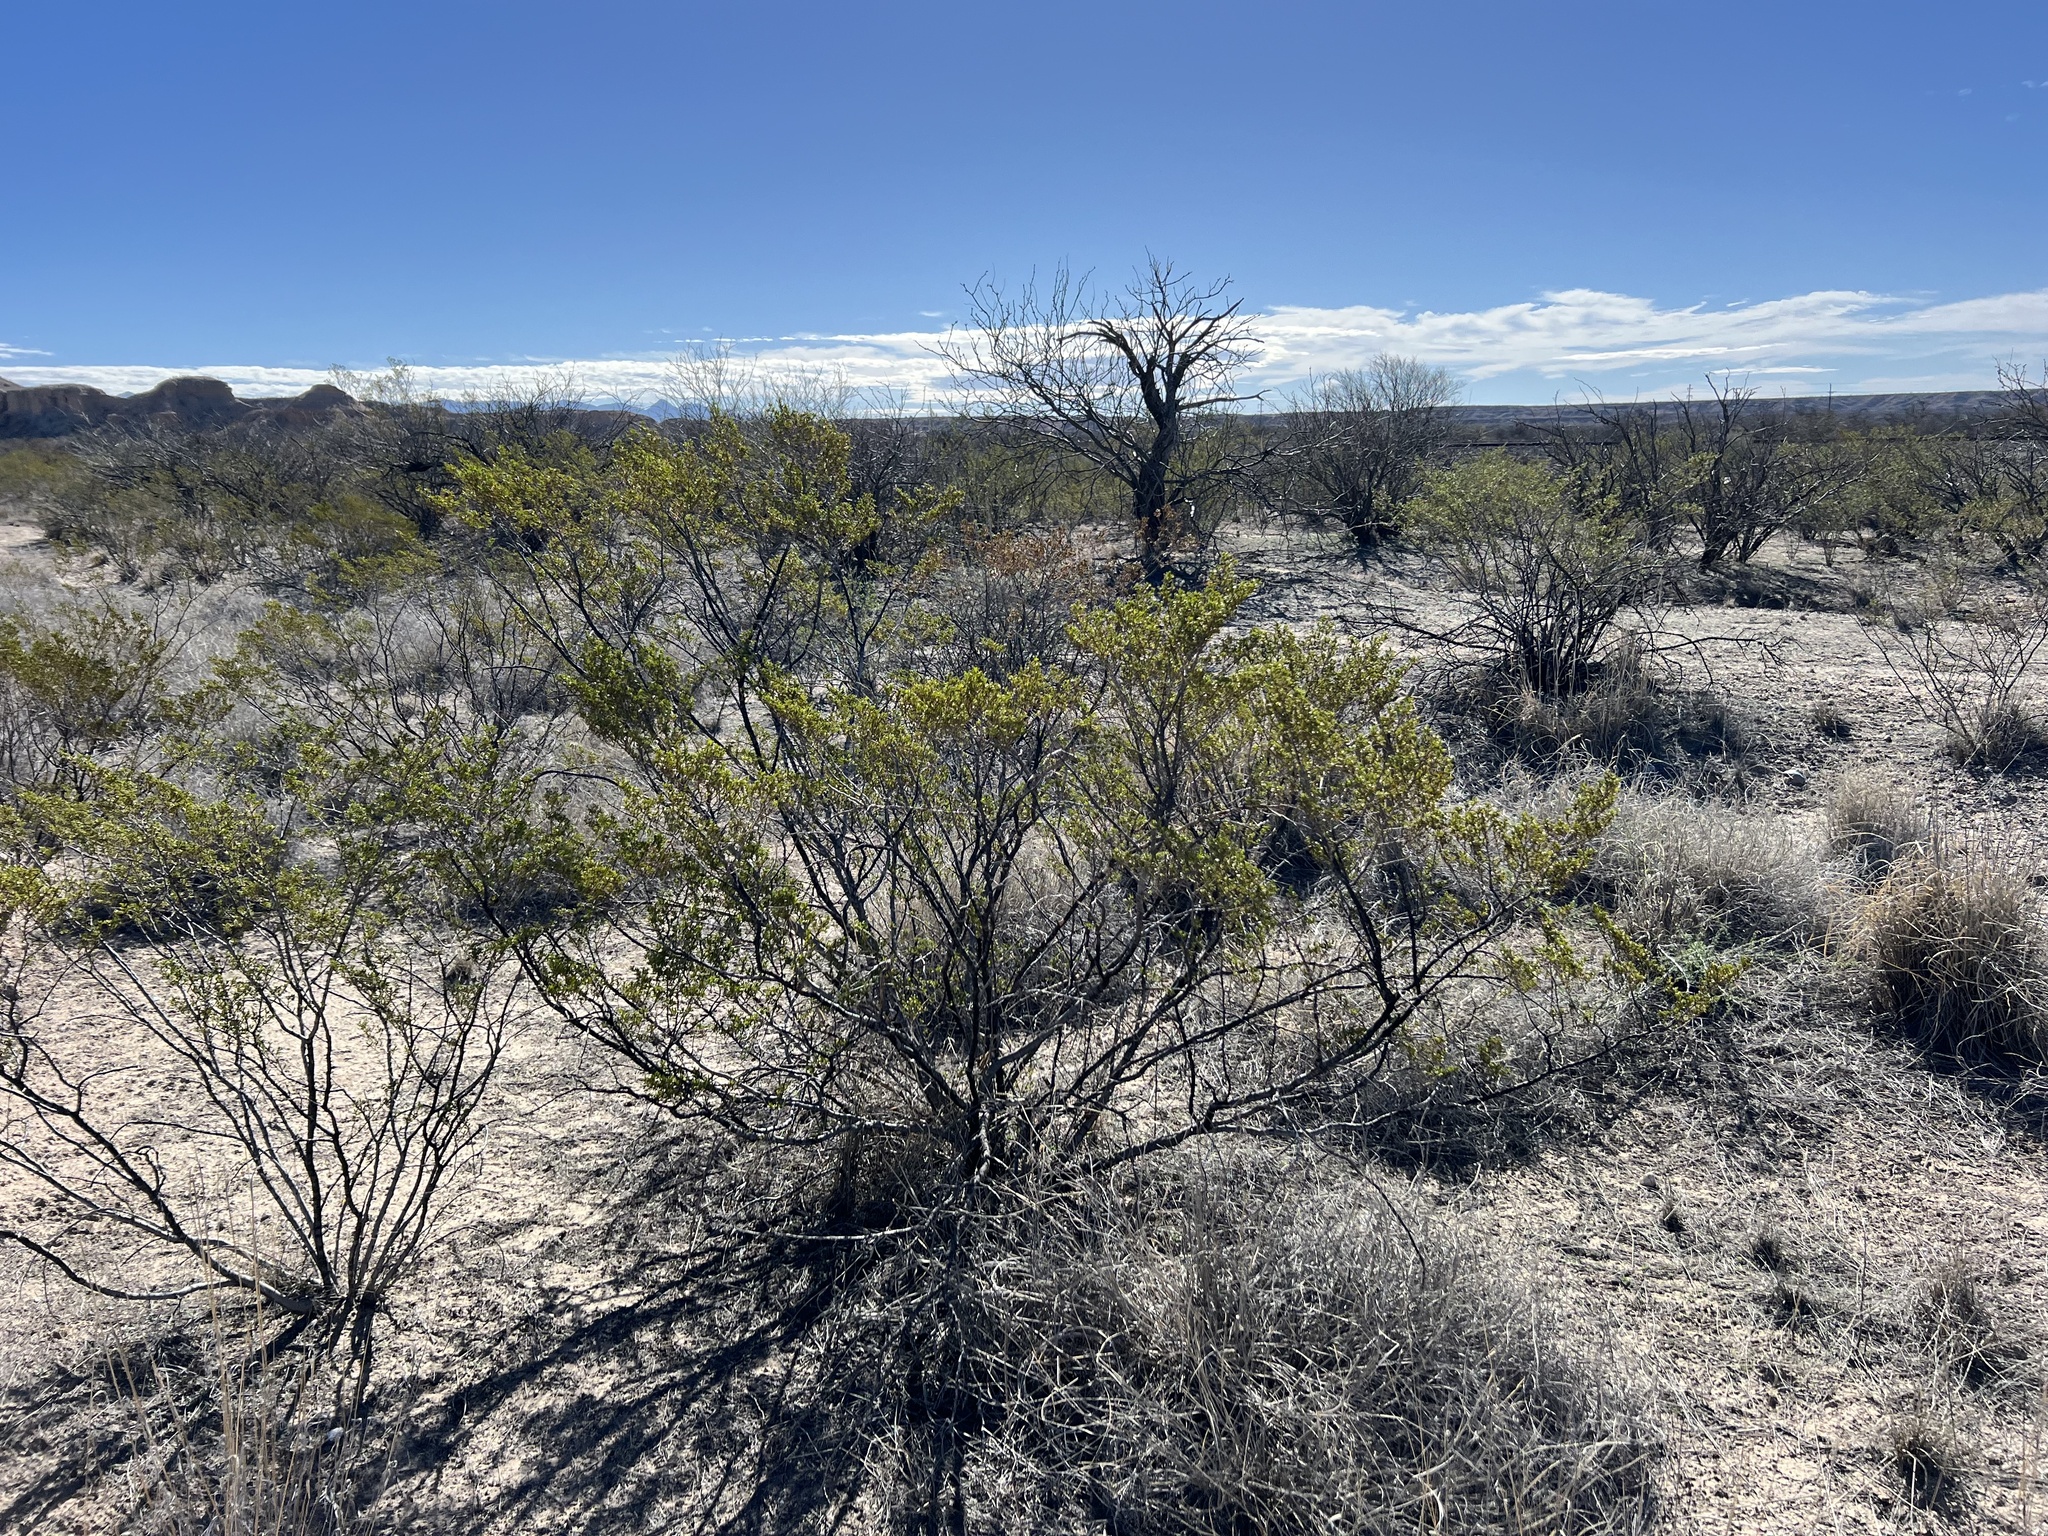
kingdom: Plantae
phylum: Tracheophyta
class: Magnoliopsida
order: Zygophyllales
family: Zygophyllaceae
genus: Larrea
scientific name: Larrea tridentata
